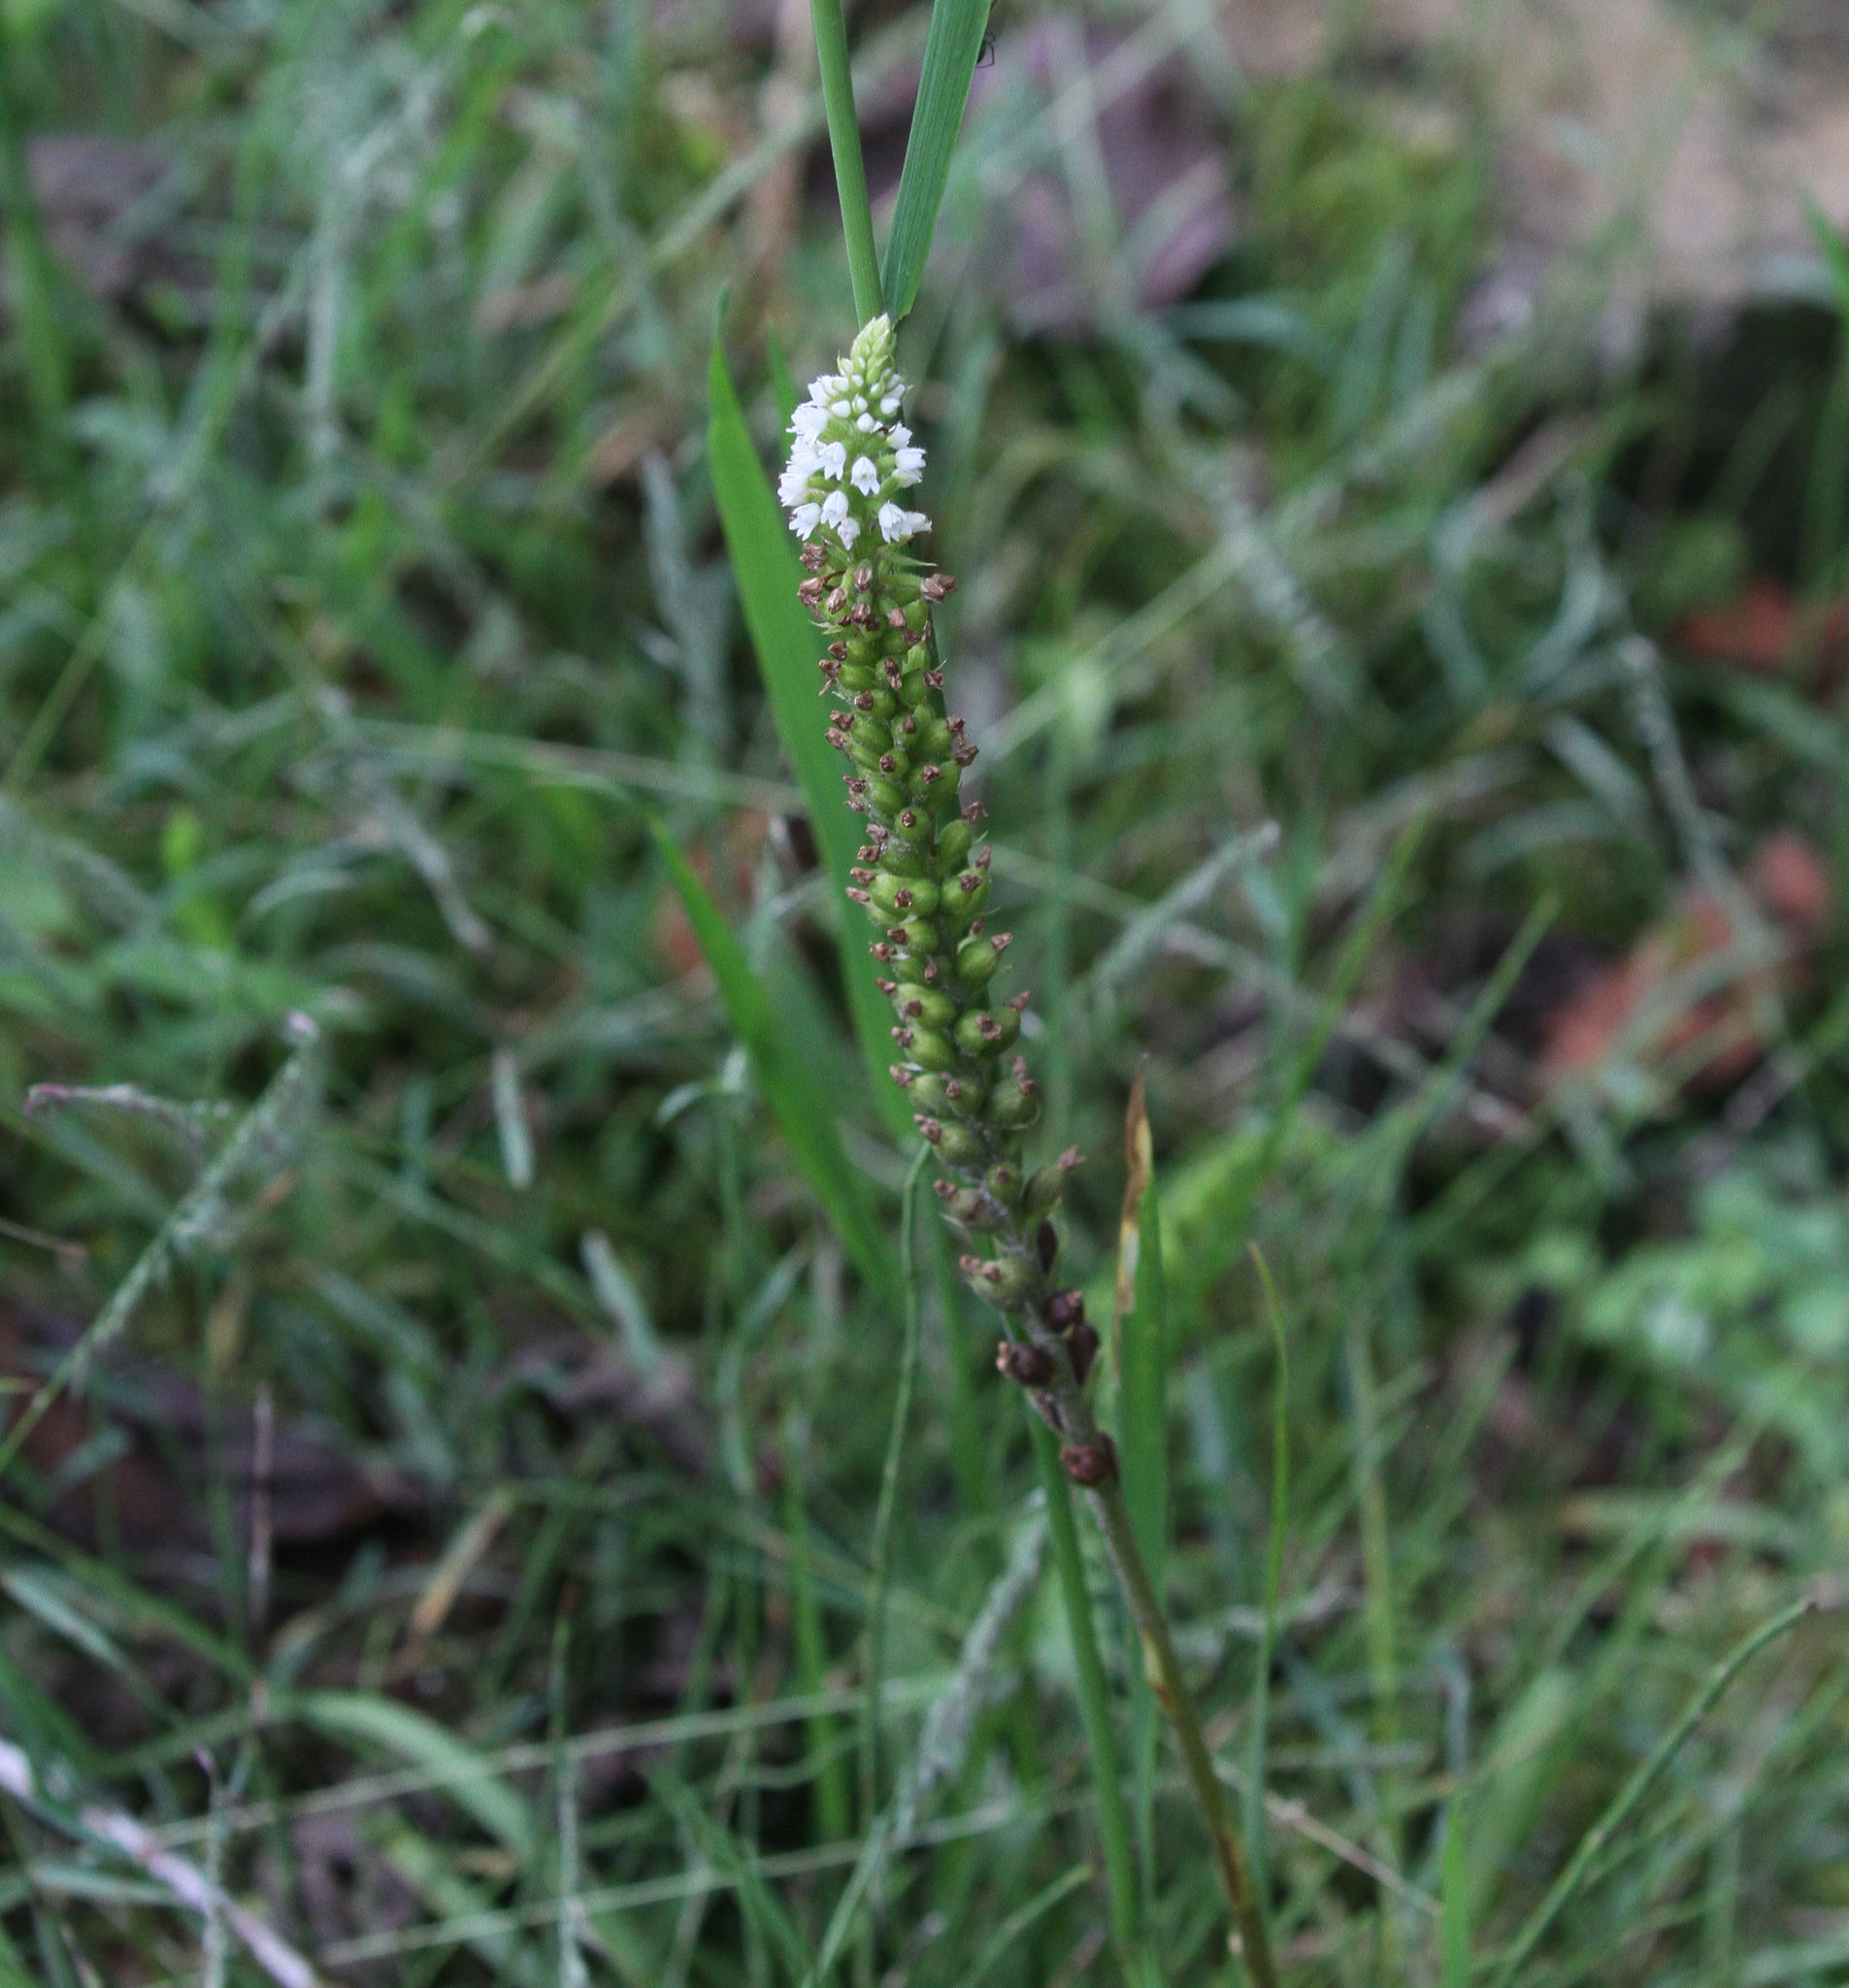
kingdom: Plantae
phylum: Tracheophyta
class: Liliopsida
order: Asparagales
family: Orchidaceae
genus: Ponthieva
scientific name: Ponthieva fertilis
